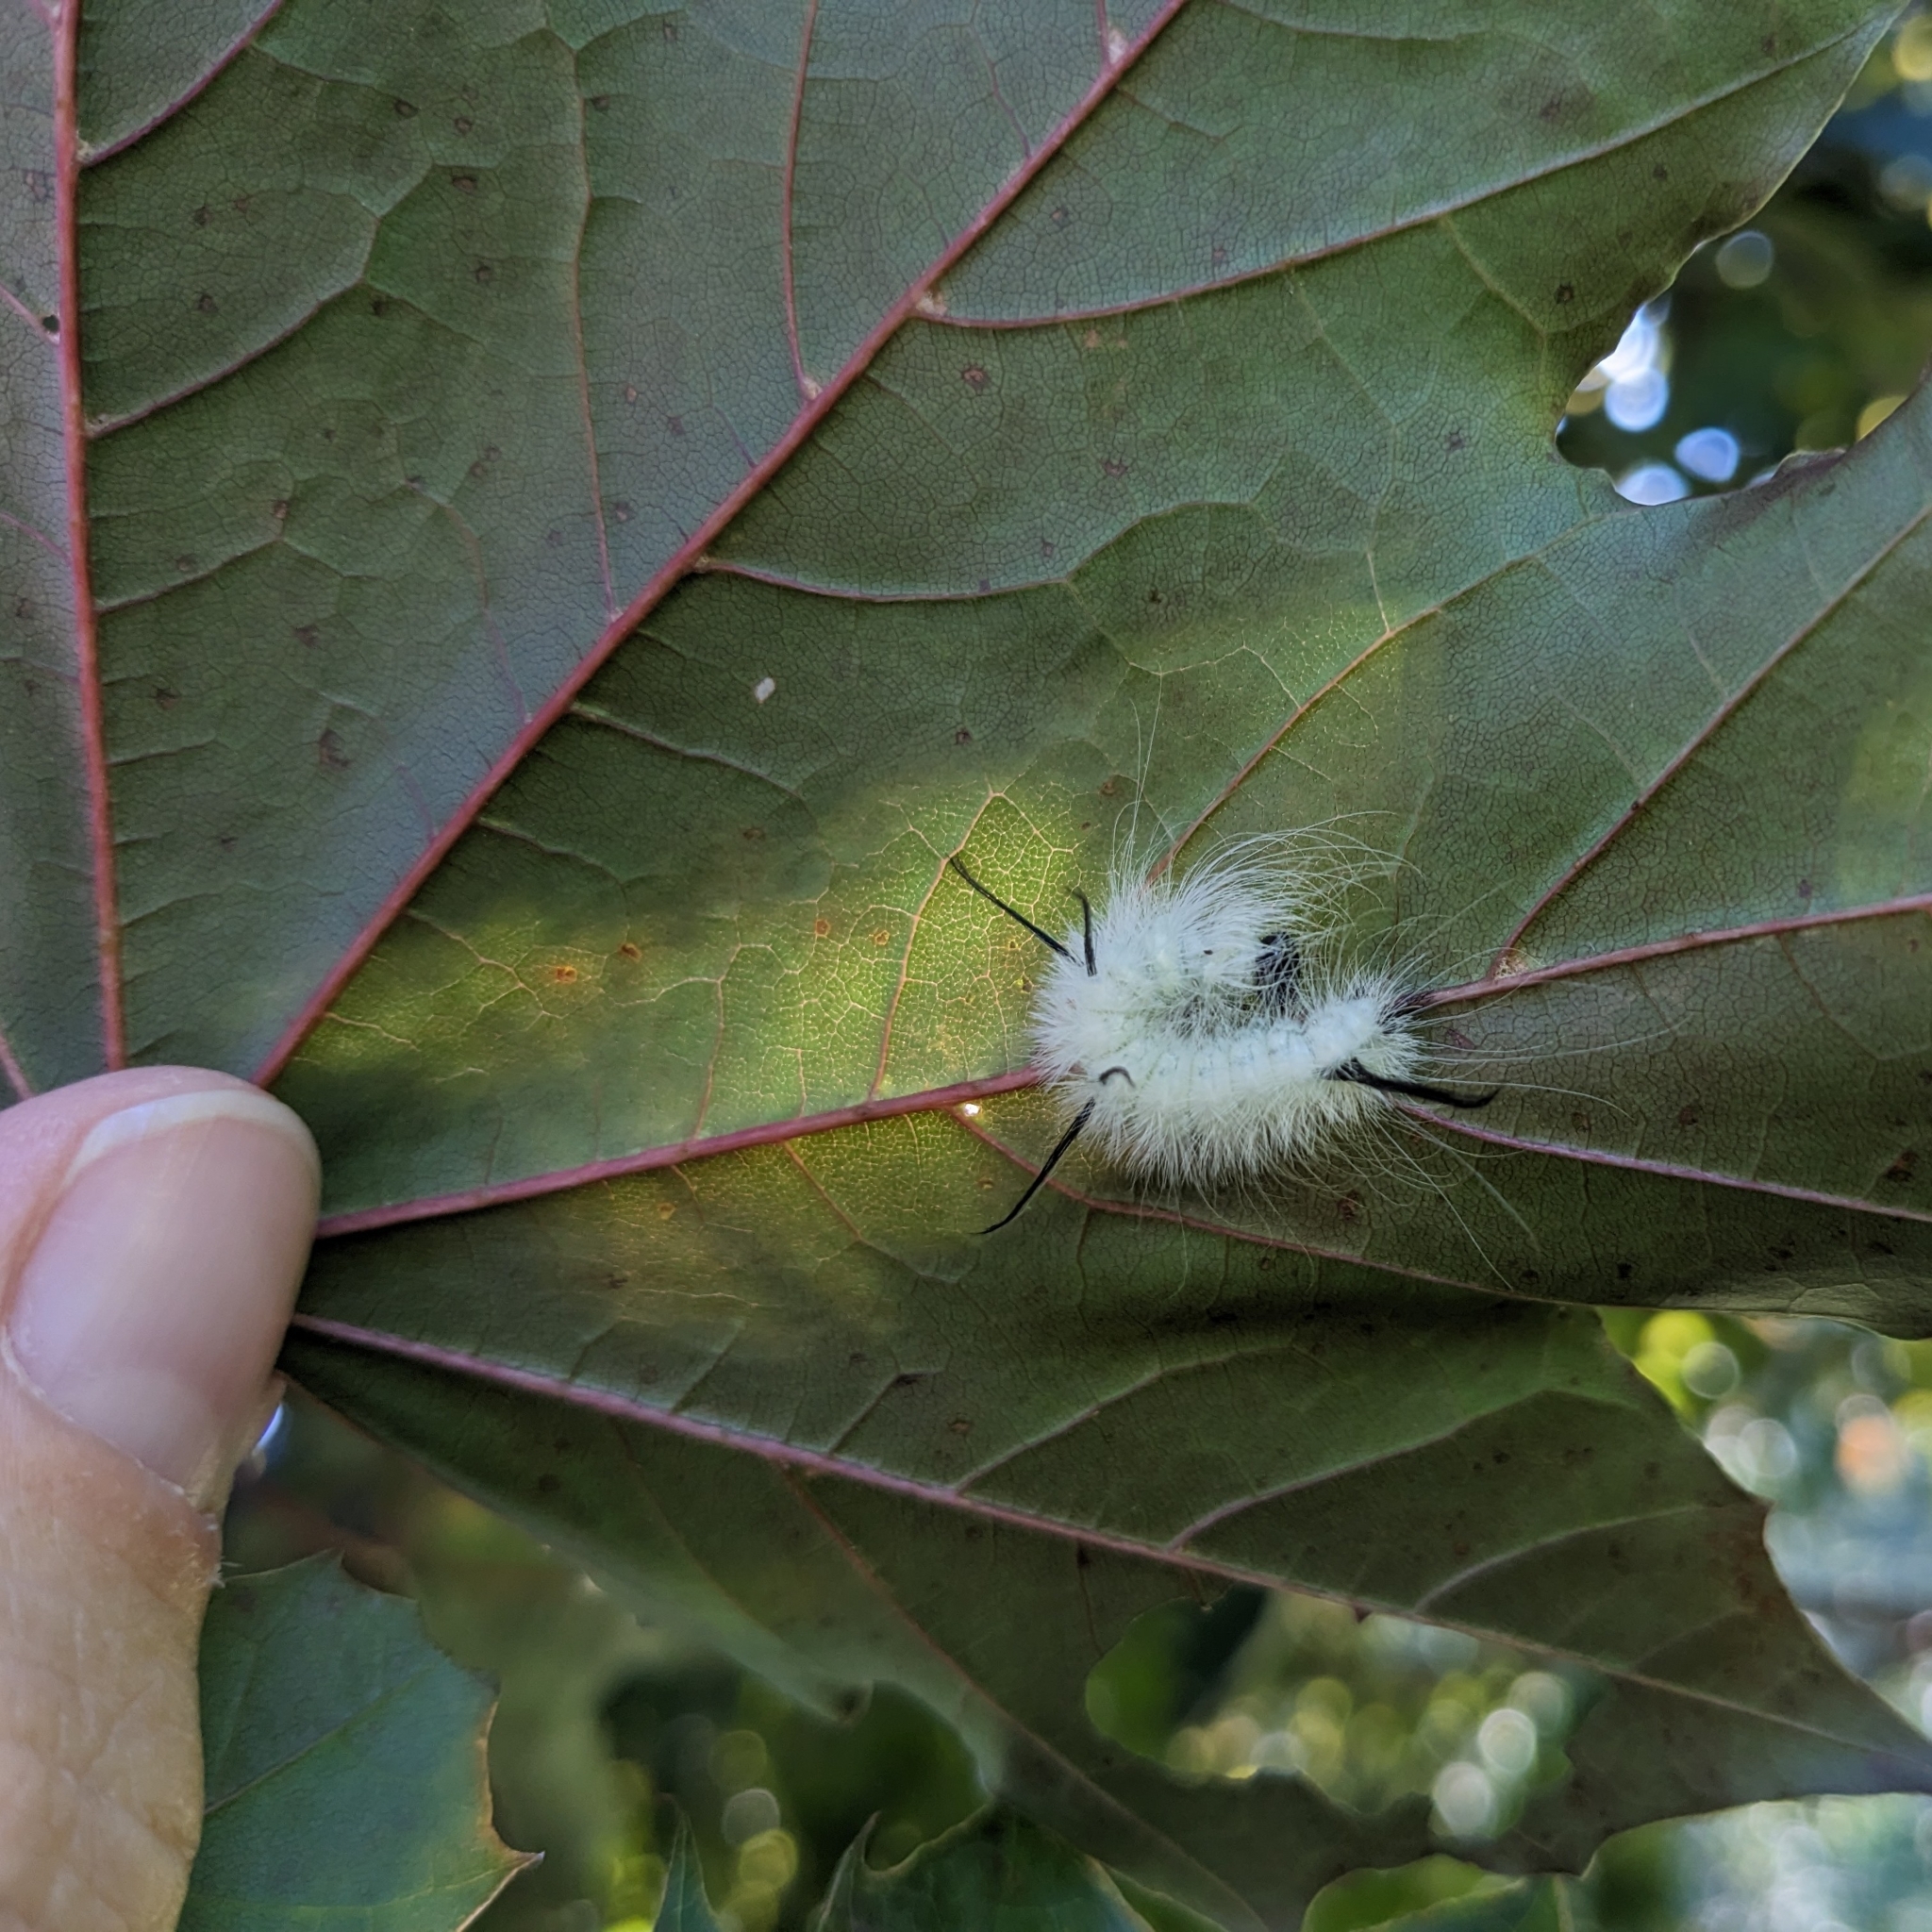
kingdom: Animalia
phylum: Arthropoda
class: Insecta
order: Lepidoptera
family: Noctuidae
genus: Acronicta
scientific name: Acronicta americana
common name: American dagger
